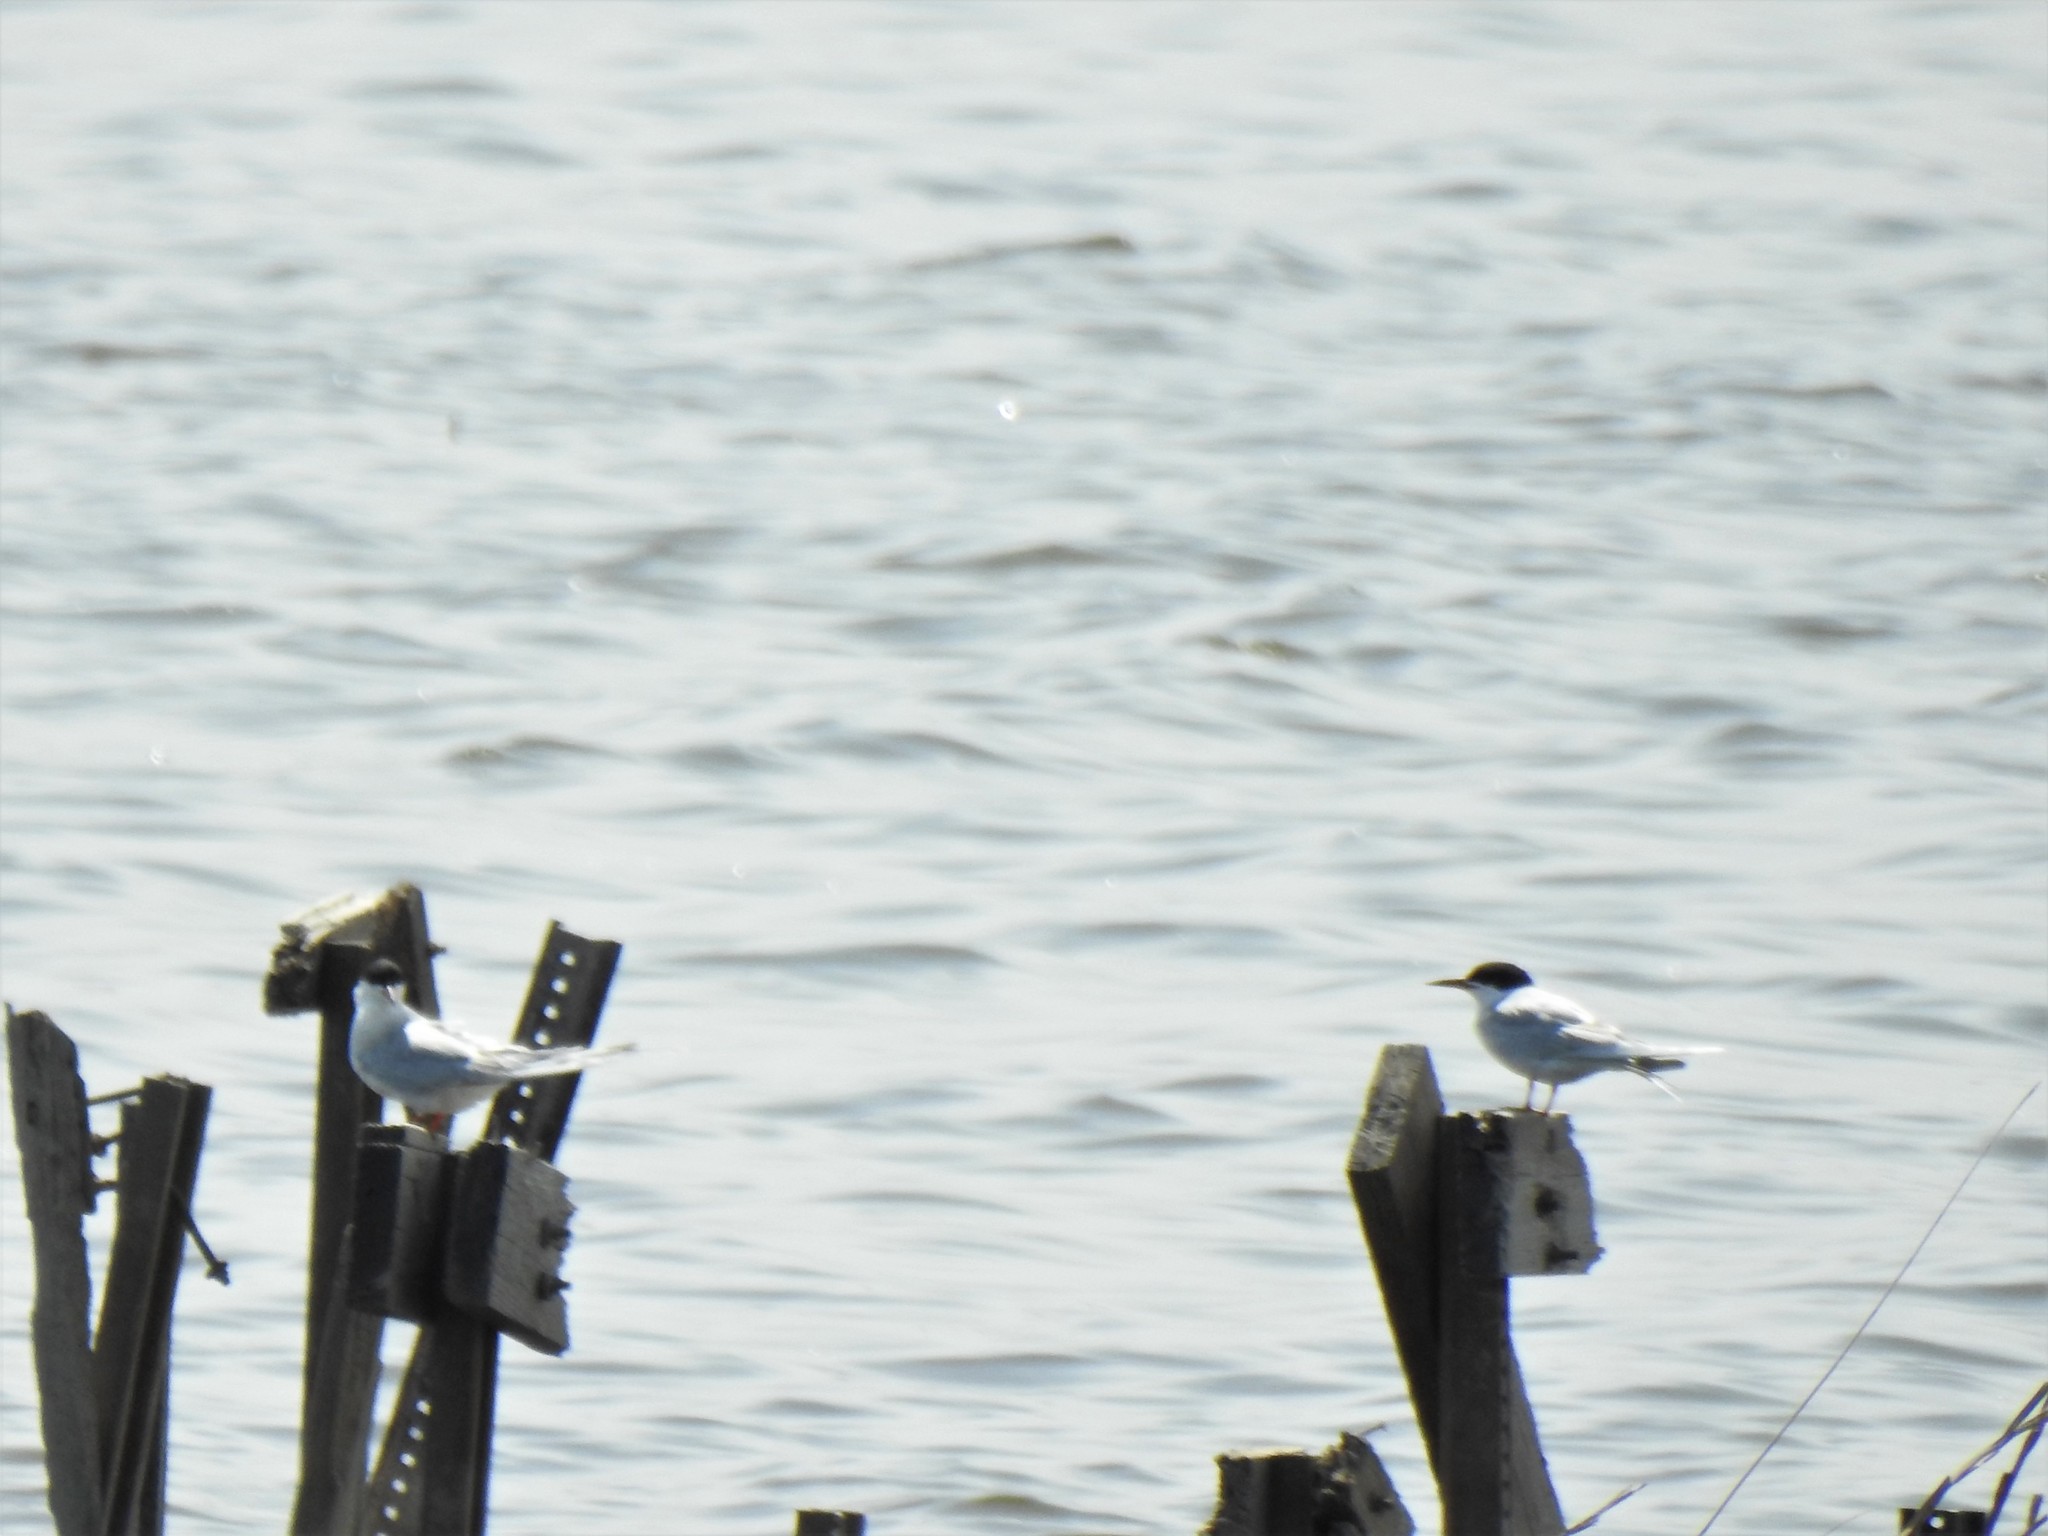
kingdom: Animalia
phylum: Chordata
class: Aves
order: Charadriiformes
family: Laridae
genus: Sterna
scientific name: Sterna forsteri
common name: Forster's tern
